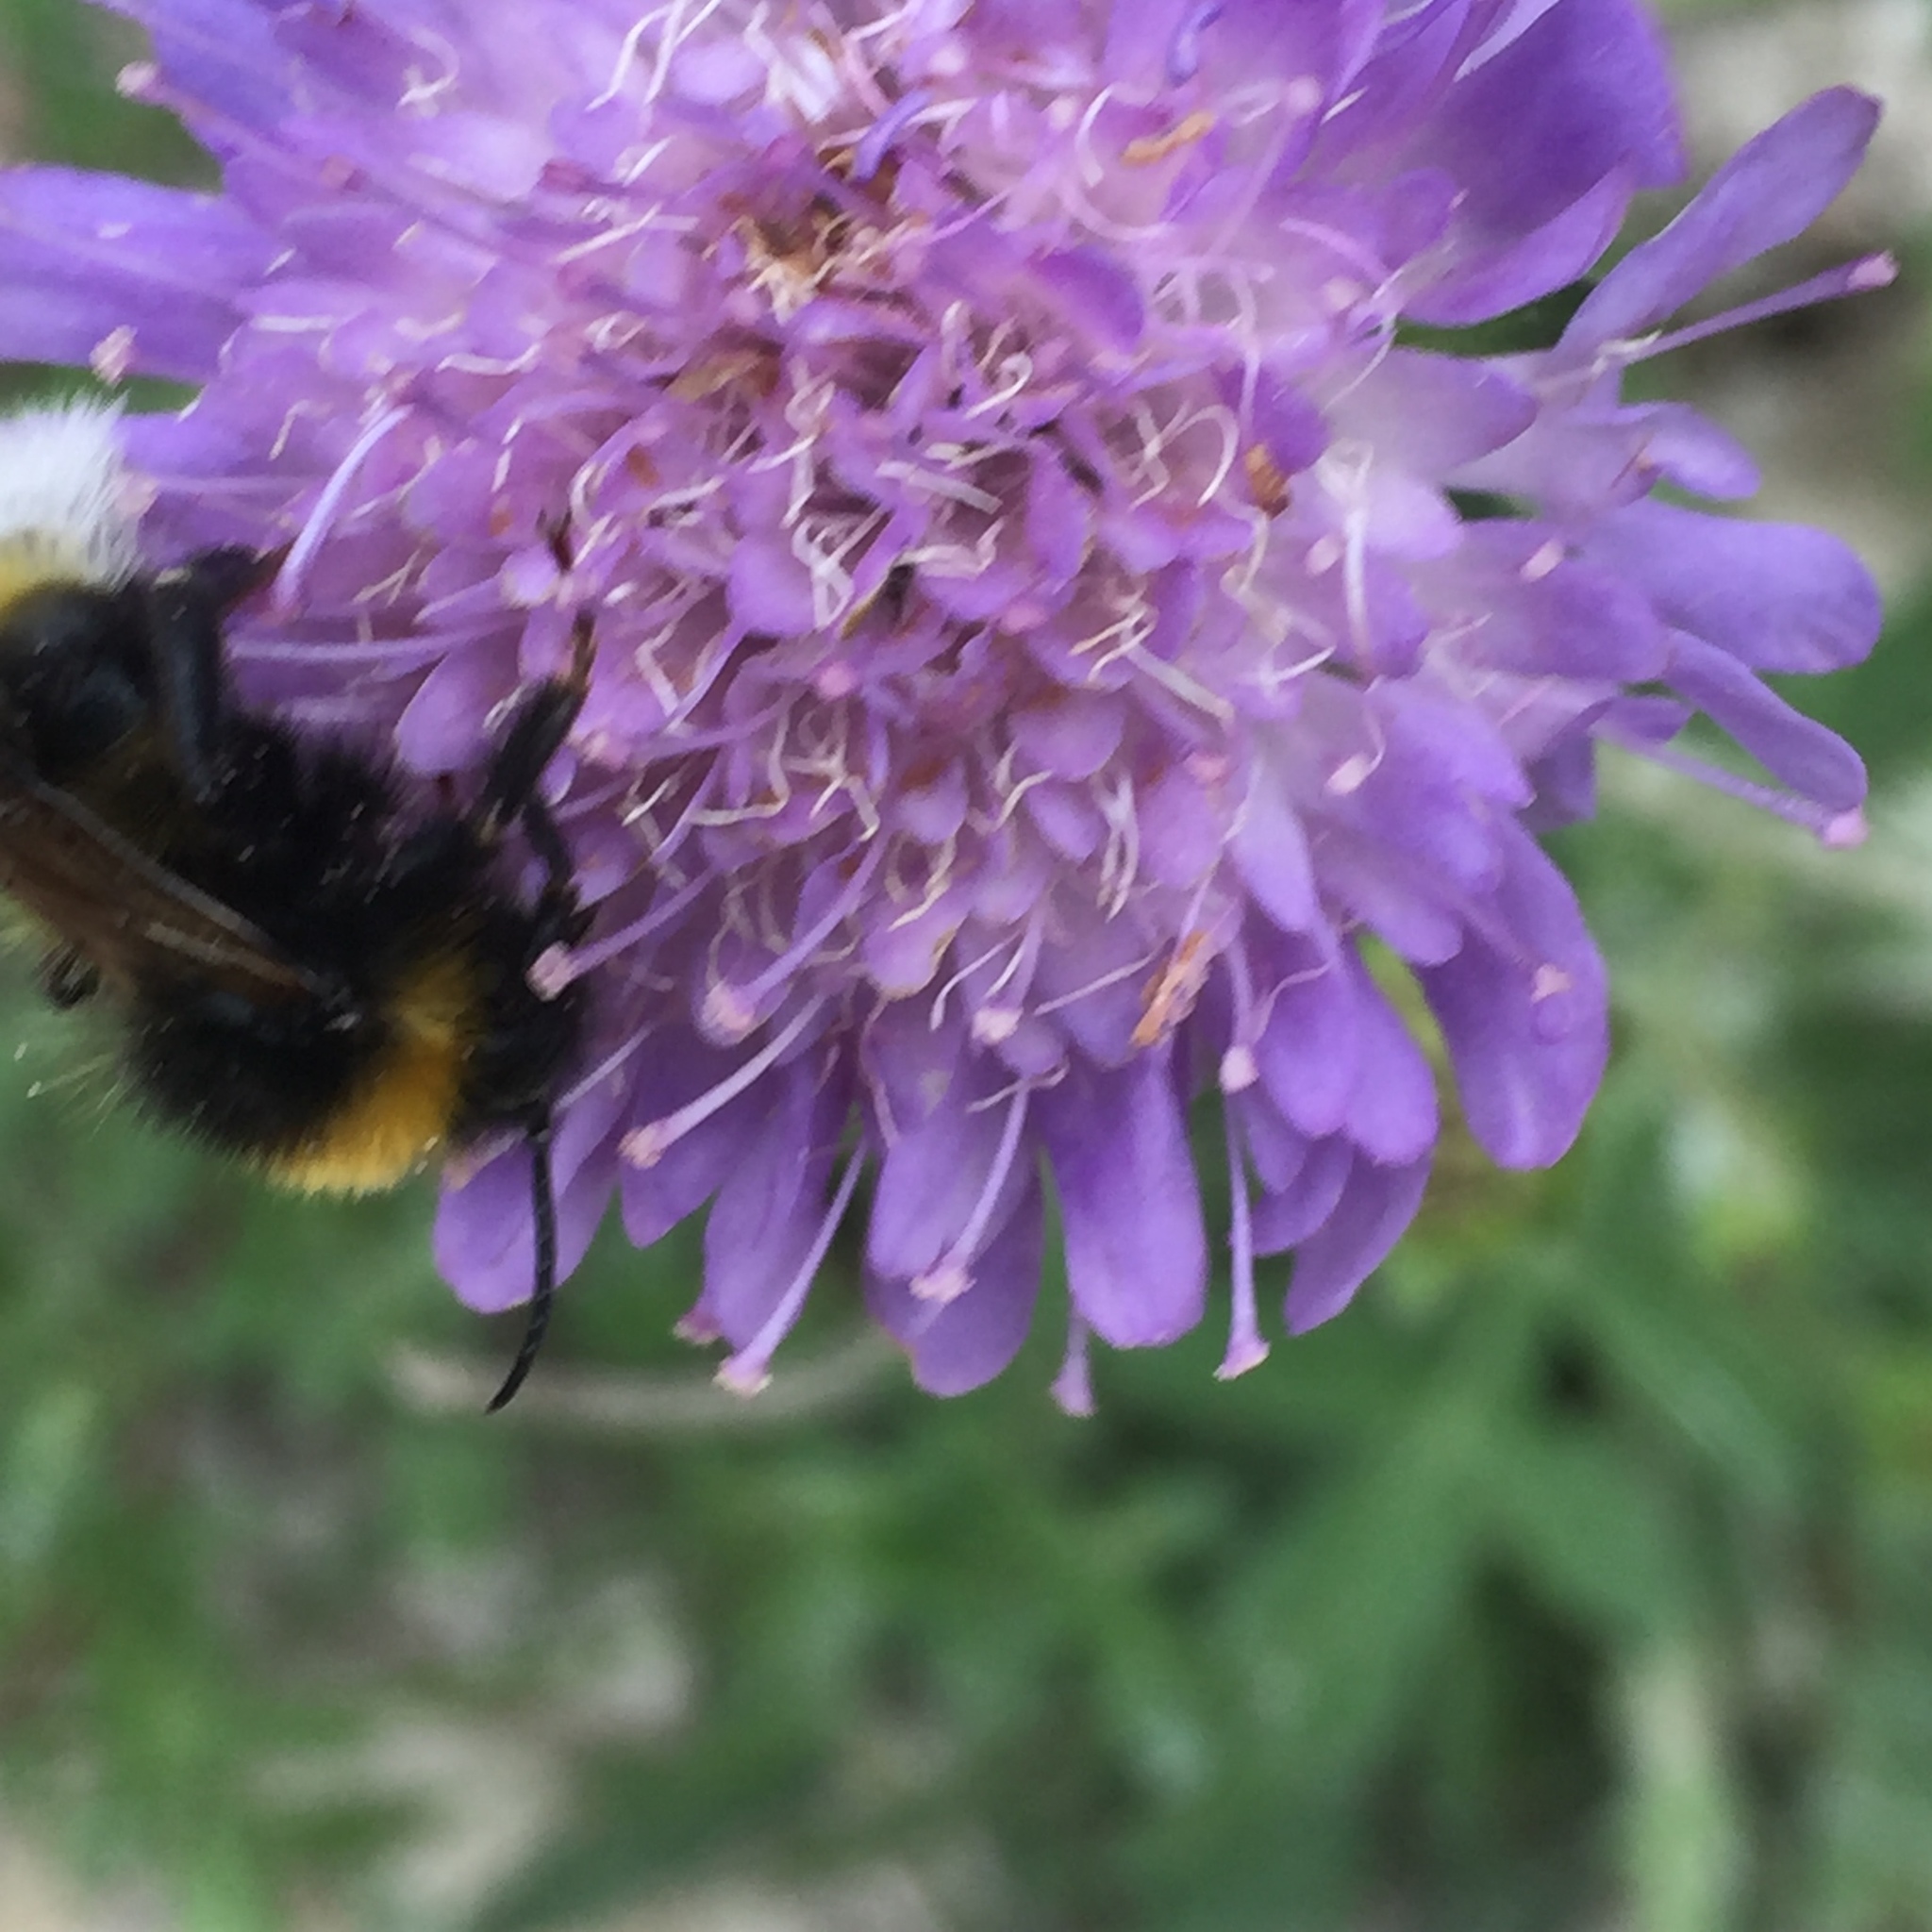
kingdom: Plantae
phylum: Tracheophyta
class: Magnoliopsida
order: Dipsacales
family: Caprifoliaceae
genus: Knautia
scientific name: Knautia arvensis
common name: Field scabiosa
